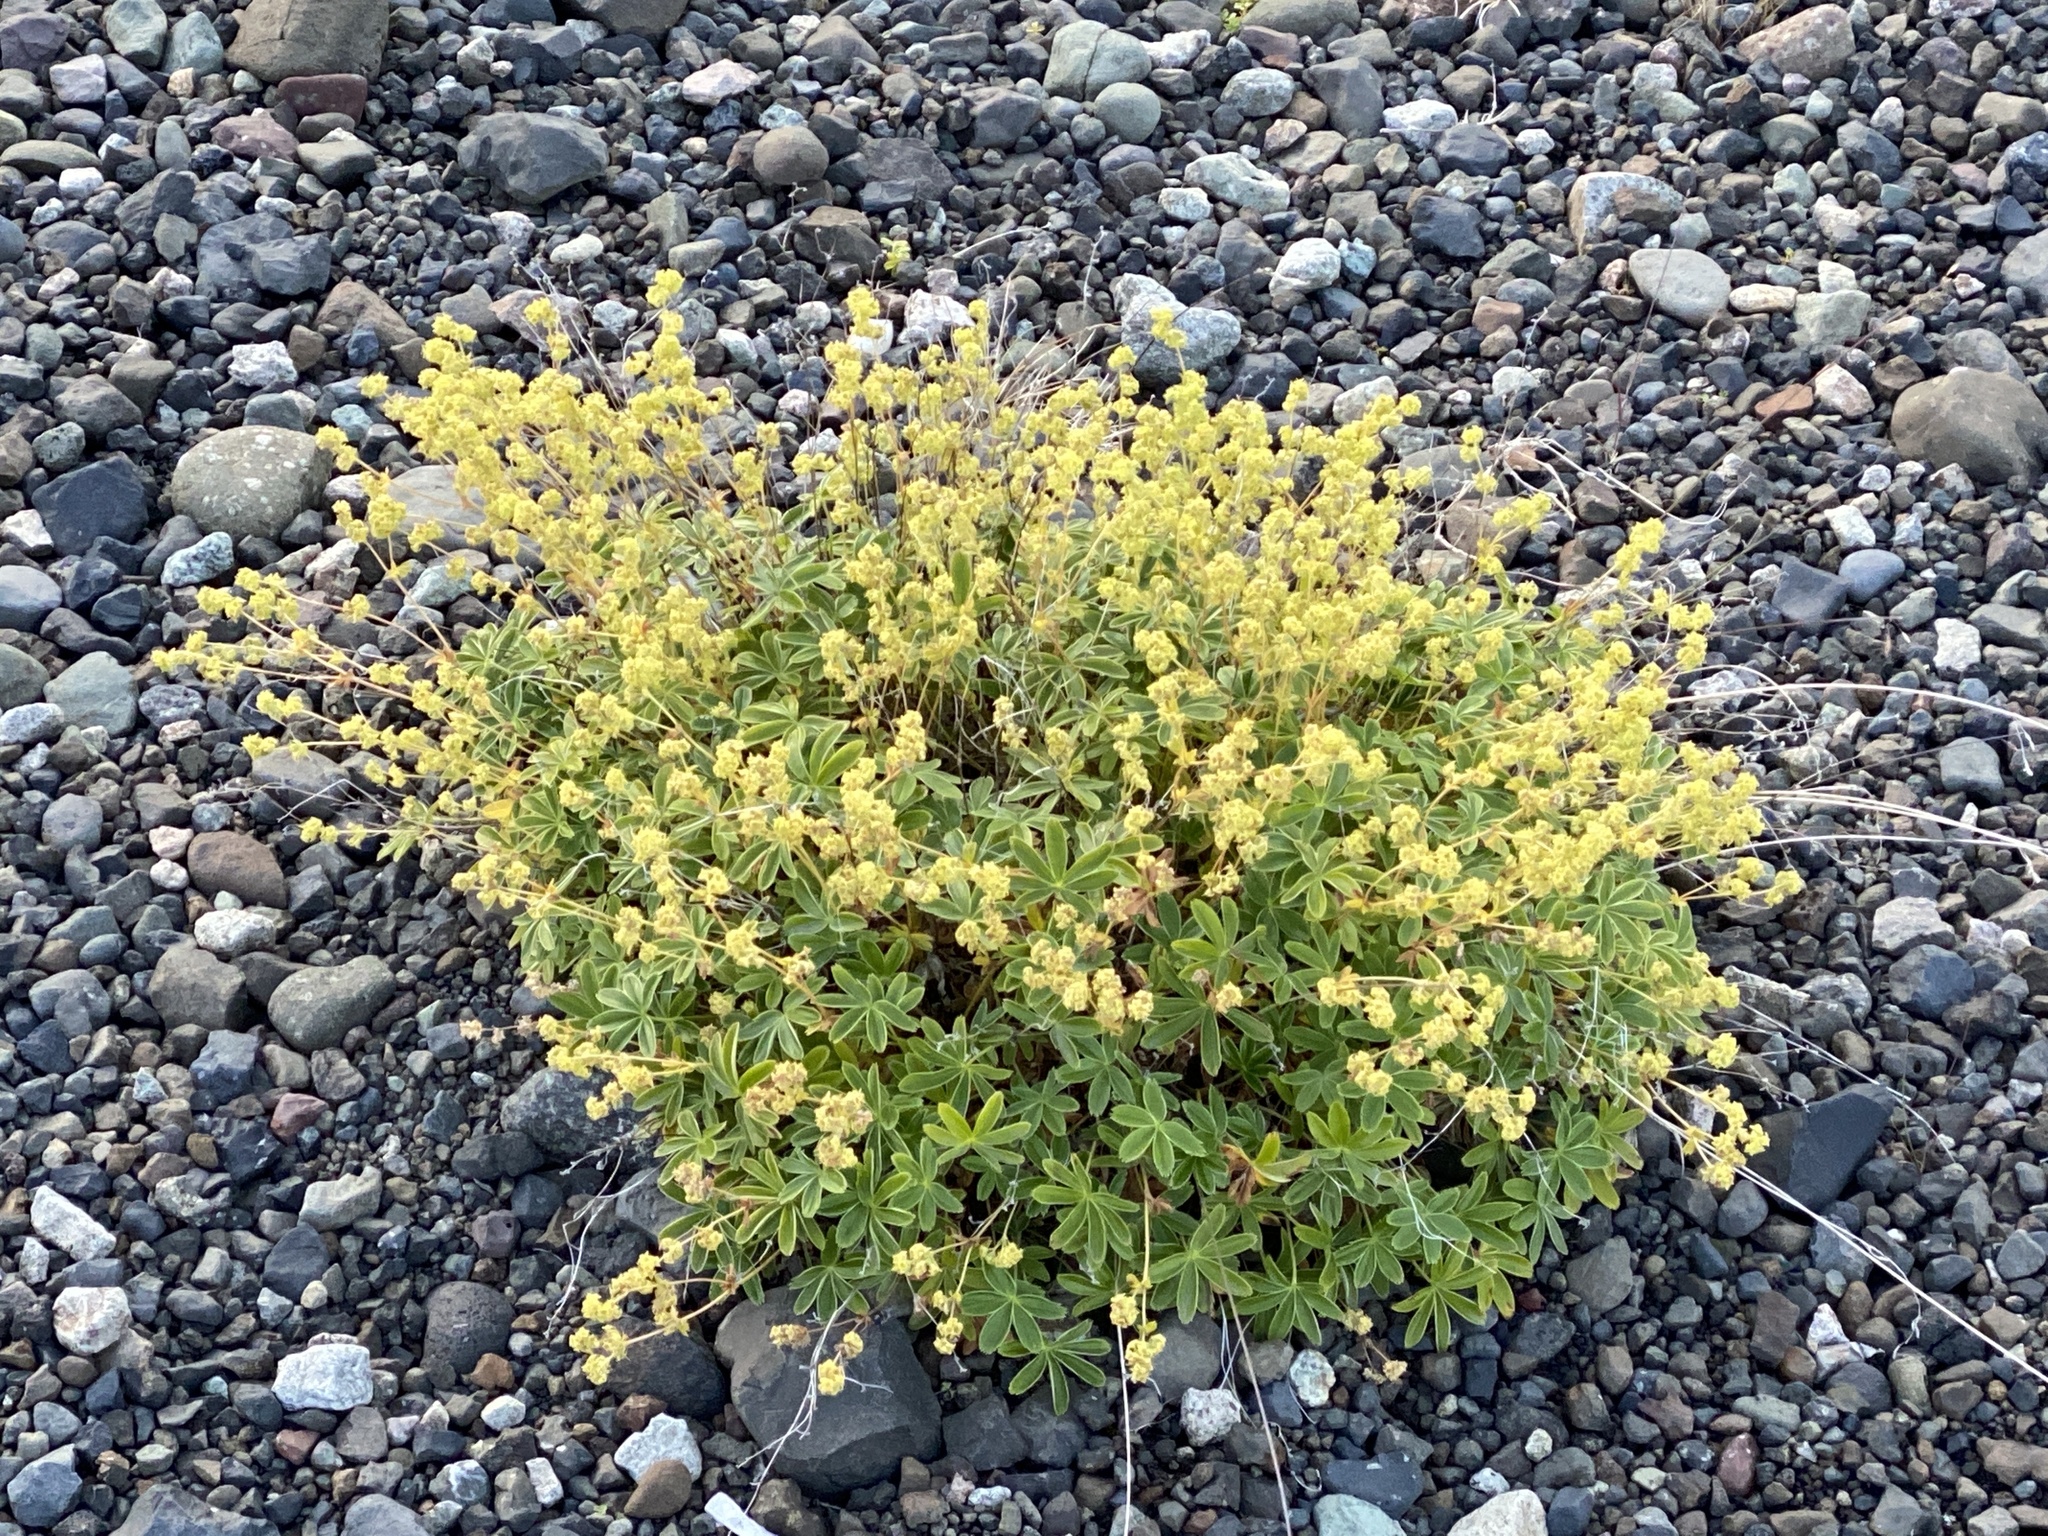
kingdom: Plantae
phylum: Tracheophyta
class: Magnoliopsida
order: Rosales
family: Rosaceae
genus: Alchemilla
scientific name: Alchemilla alpina
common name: Alpine lady's-mantle
